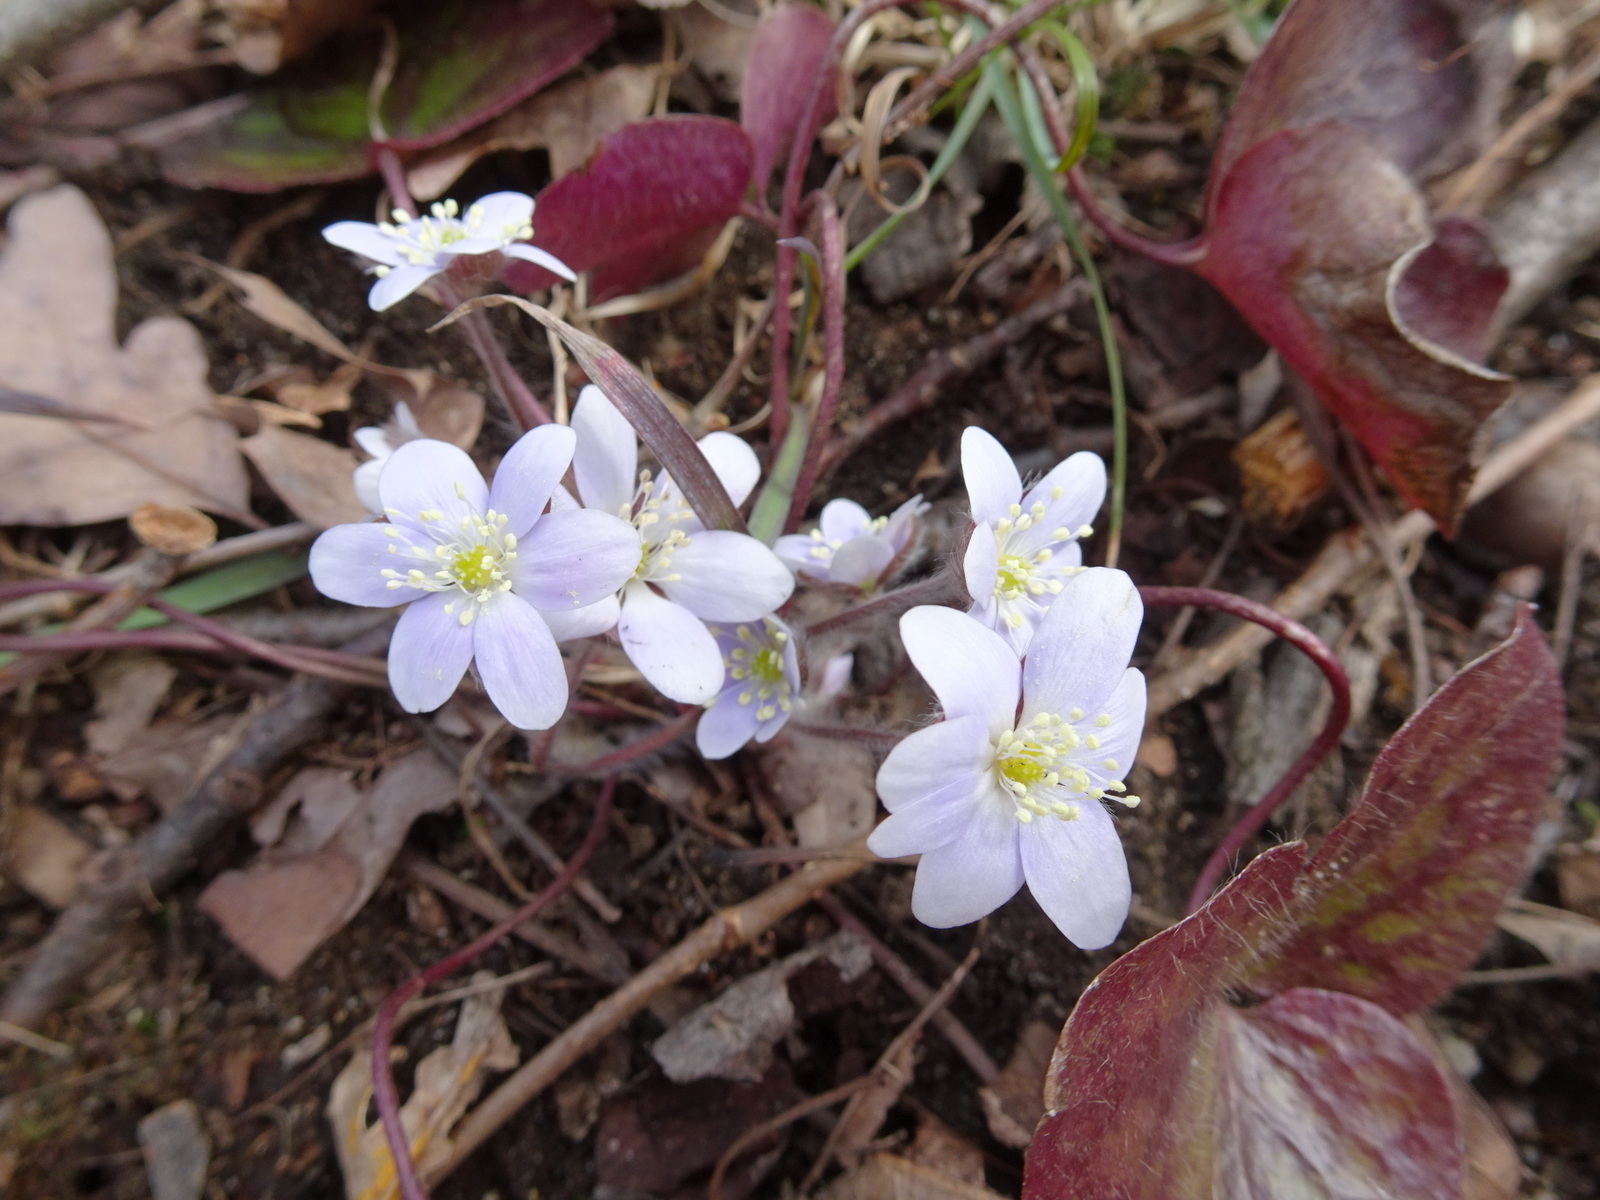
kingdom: Plantae
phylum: Tracheophyta
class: Magnoliopsida
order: Ranunculales
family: Ranunculaceae
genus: Hepatica
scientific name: Hepatica americana
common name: American hepatica
